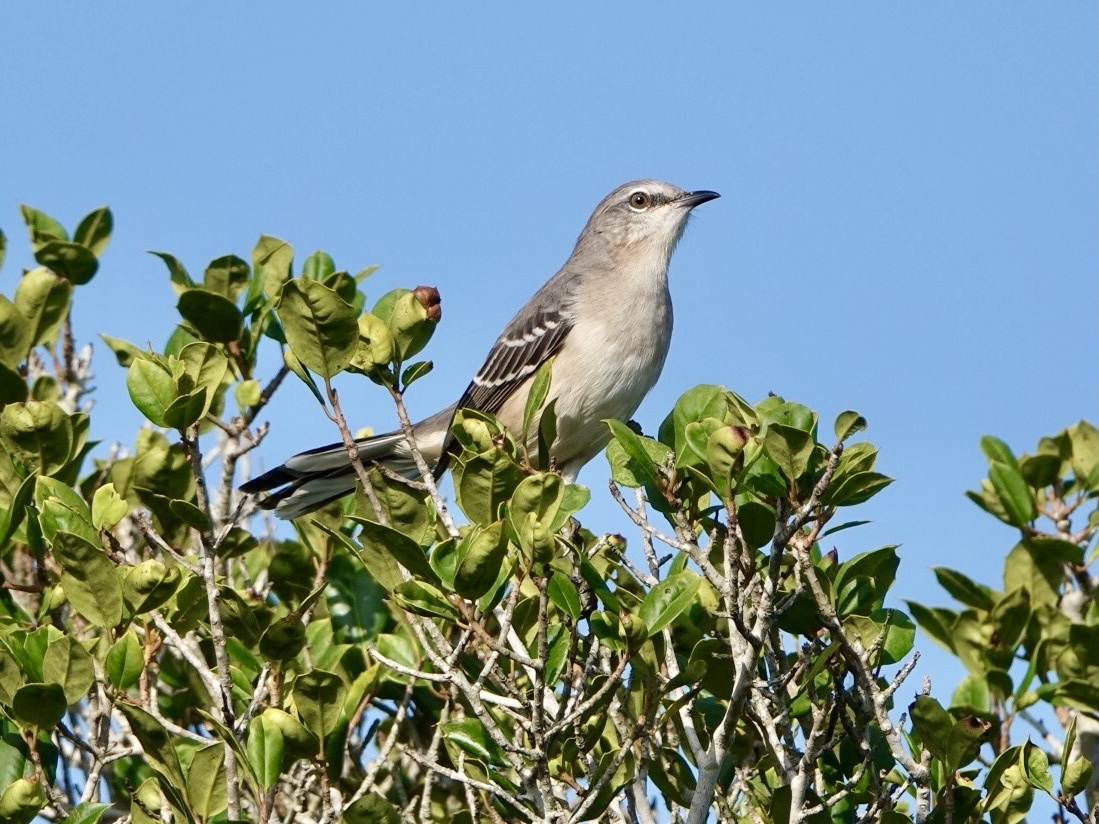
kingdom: Animalia
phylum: Chordata
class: Aves
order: Passeriformes
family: Mimidae
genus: Mimus
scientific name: Mimus polyglottos
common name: Northern mockingbird
